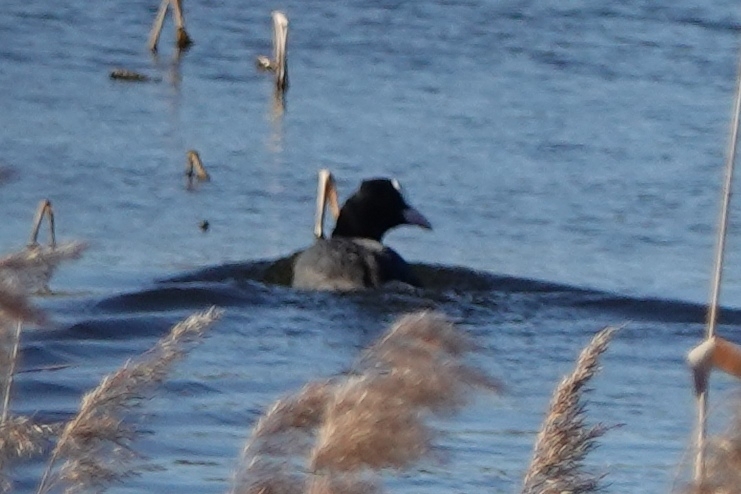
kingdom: Animalia
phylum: Chordata
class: Aves
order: Gruiformes
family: Rallidae
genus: Fulica
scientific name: Fulica atra
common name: Eurasian coot
